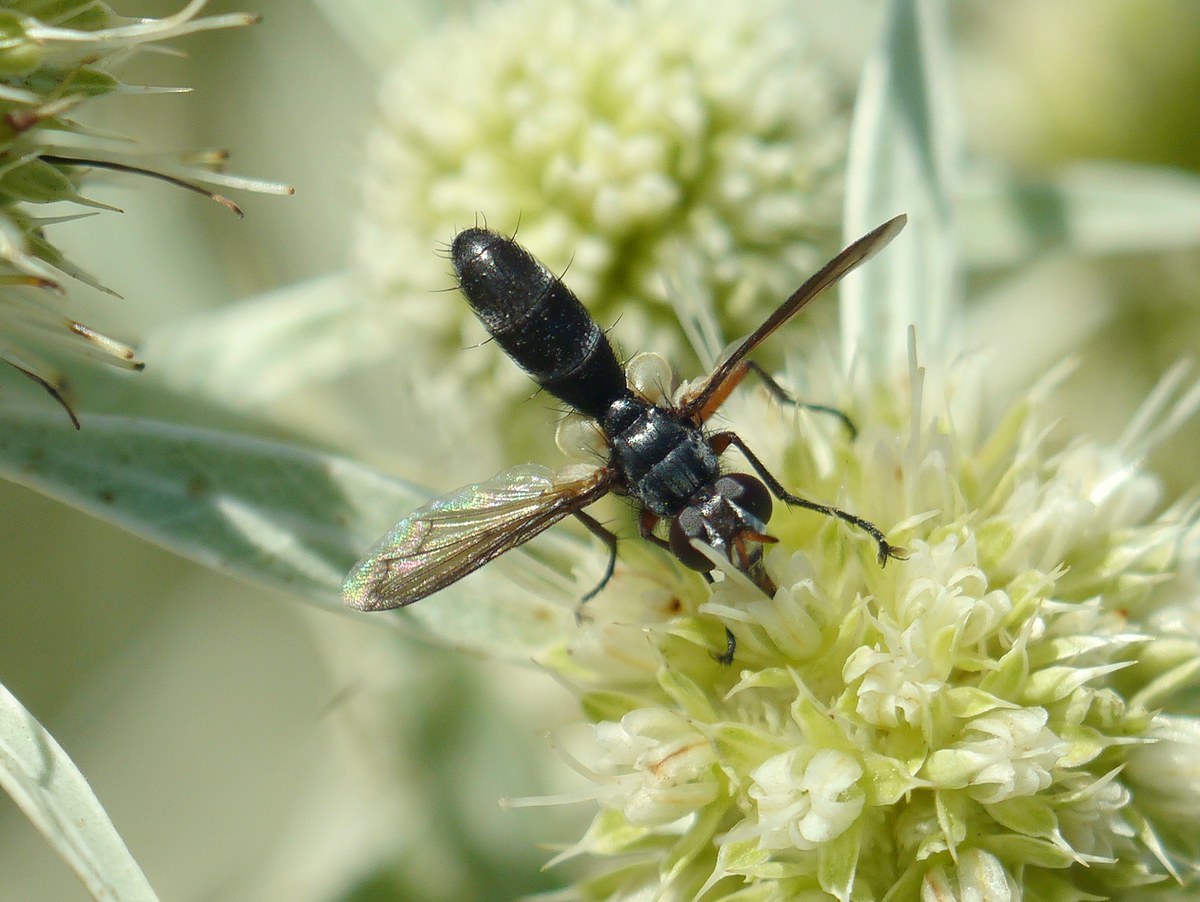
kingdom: Animalia
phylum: Arthropoda
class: Insecta
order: Diptera
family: Tachinidae
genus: Cylindromyia
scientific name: Cylindromyia rufipes
